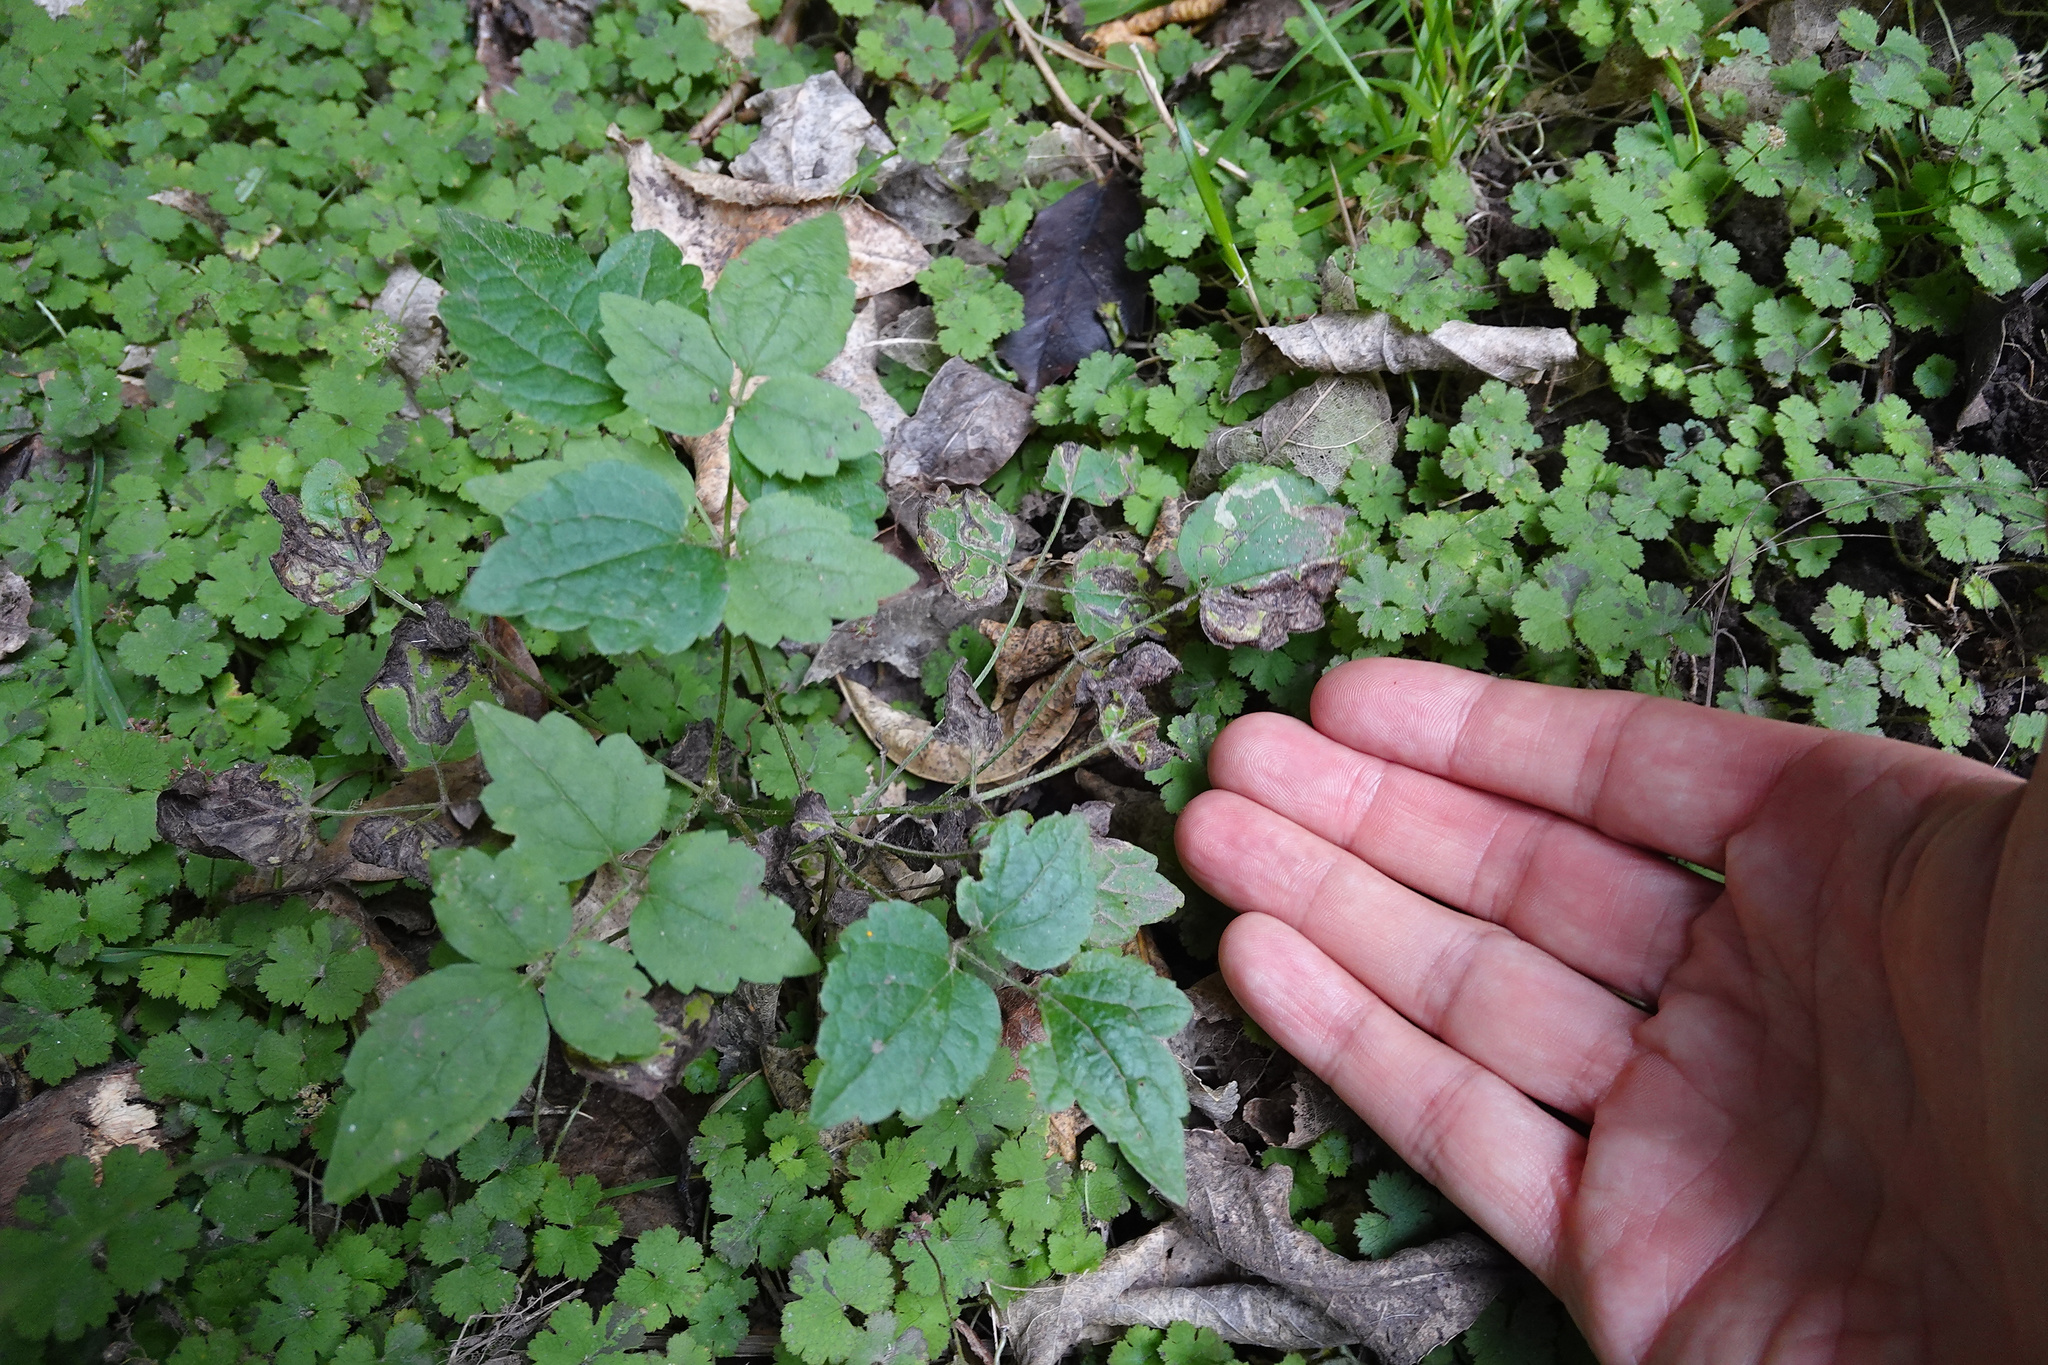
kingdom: Plantae
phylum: Tracheophyta
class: Magnoliopsida
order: Ranunculales
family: Ranunculaceae
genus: Clematis
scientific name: Clematis vitalba
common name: Evergreen clematis
